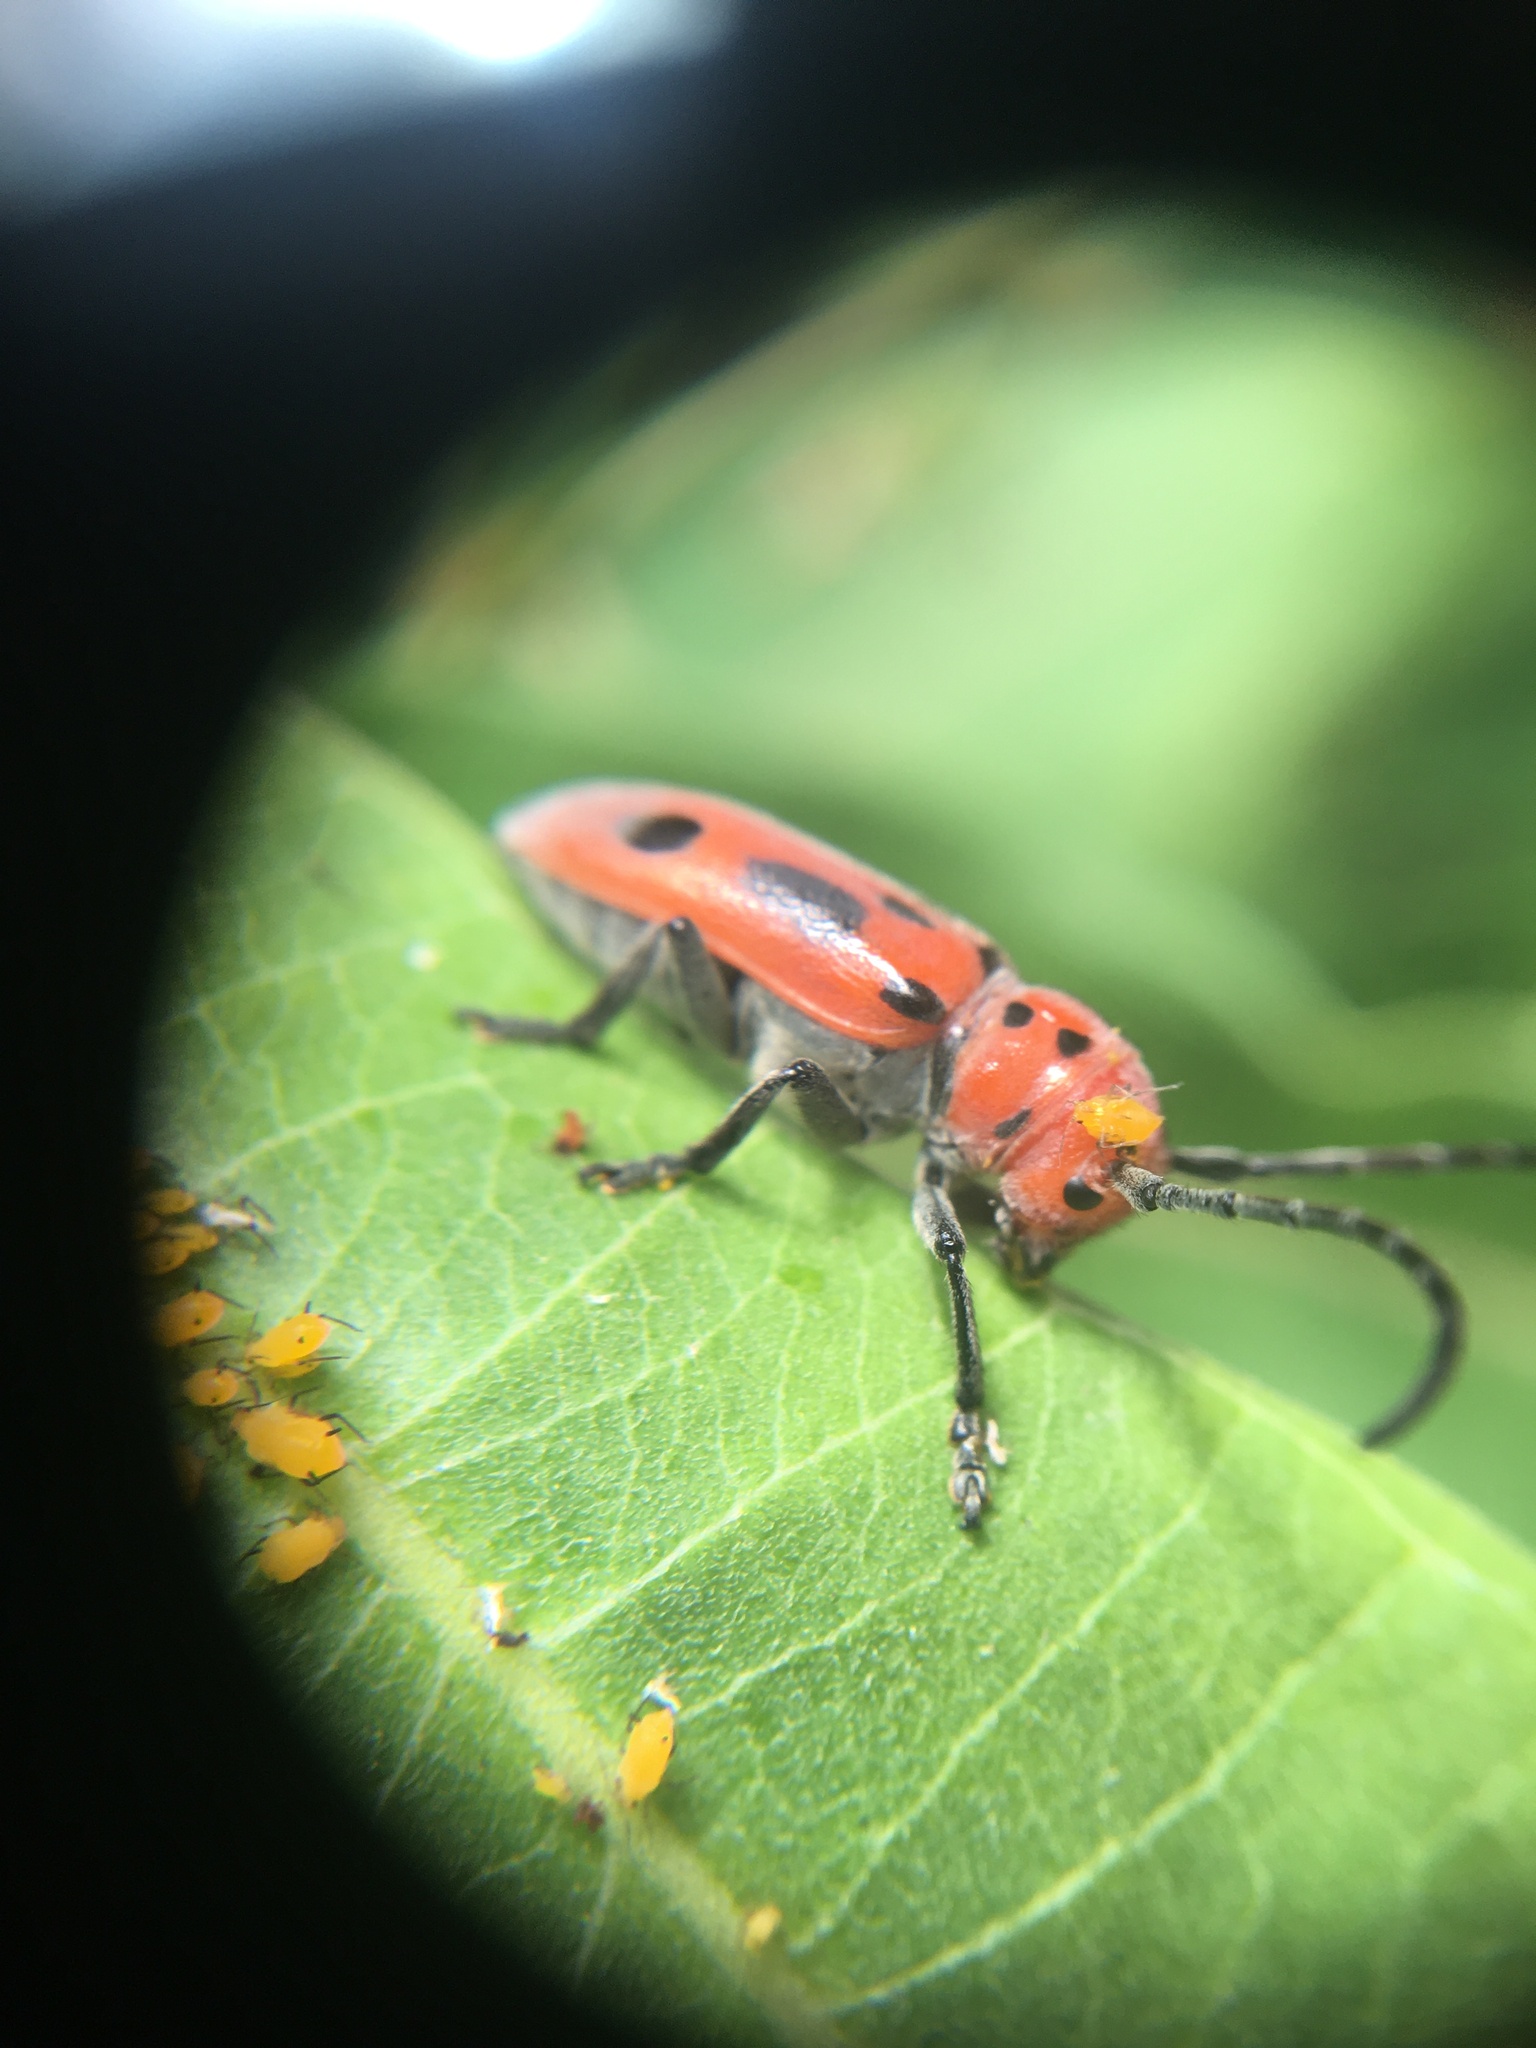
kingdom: Animalia
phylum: Arthropoda
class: Insecta
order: Coleoptera
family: Cerambycidae
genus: Tetraopes
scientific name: Tetraopes tetrophthalmus
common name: Red milkweed beetle
